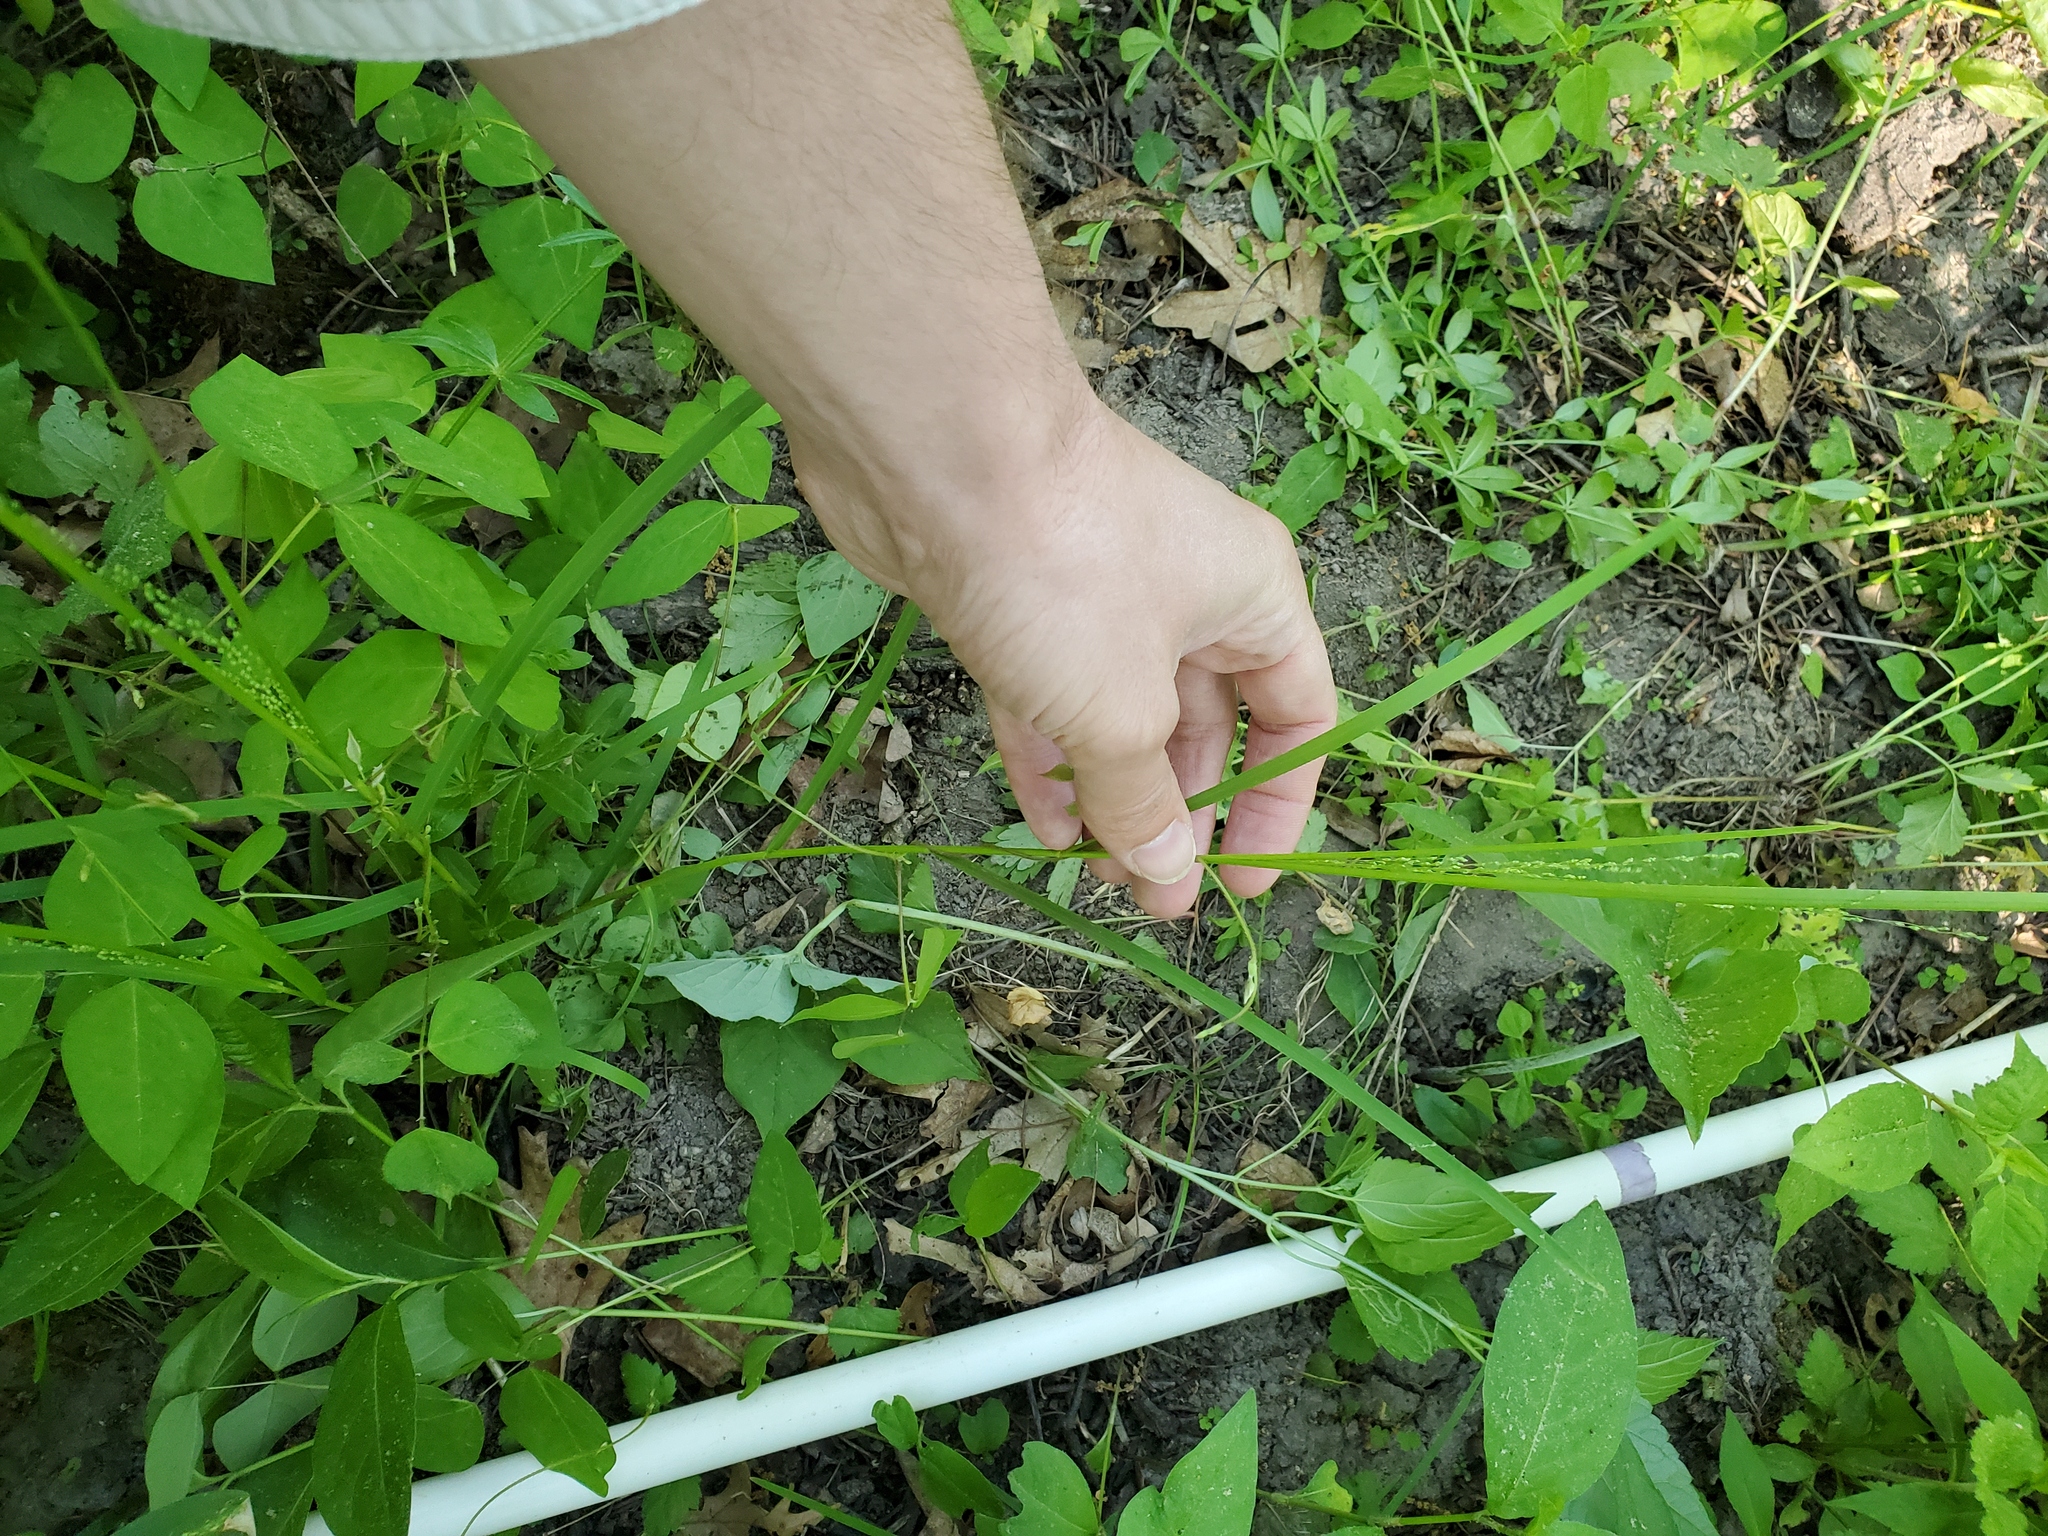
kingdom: Plantae
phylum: Tracheophyta
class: Liliopsida
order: Poales
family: Poaceae
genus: Glyceria
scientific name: Glyceria striata
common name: Fowl manna grass
